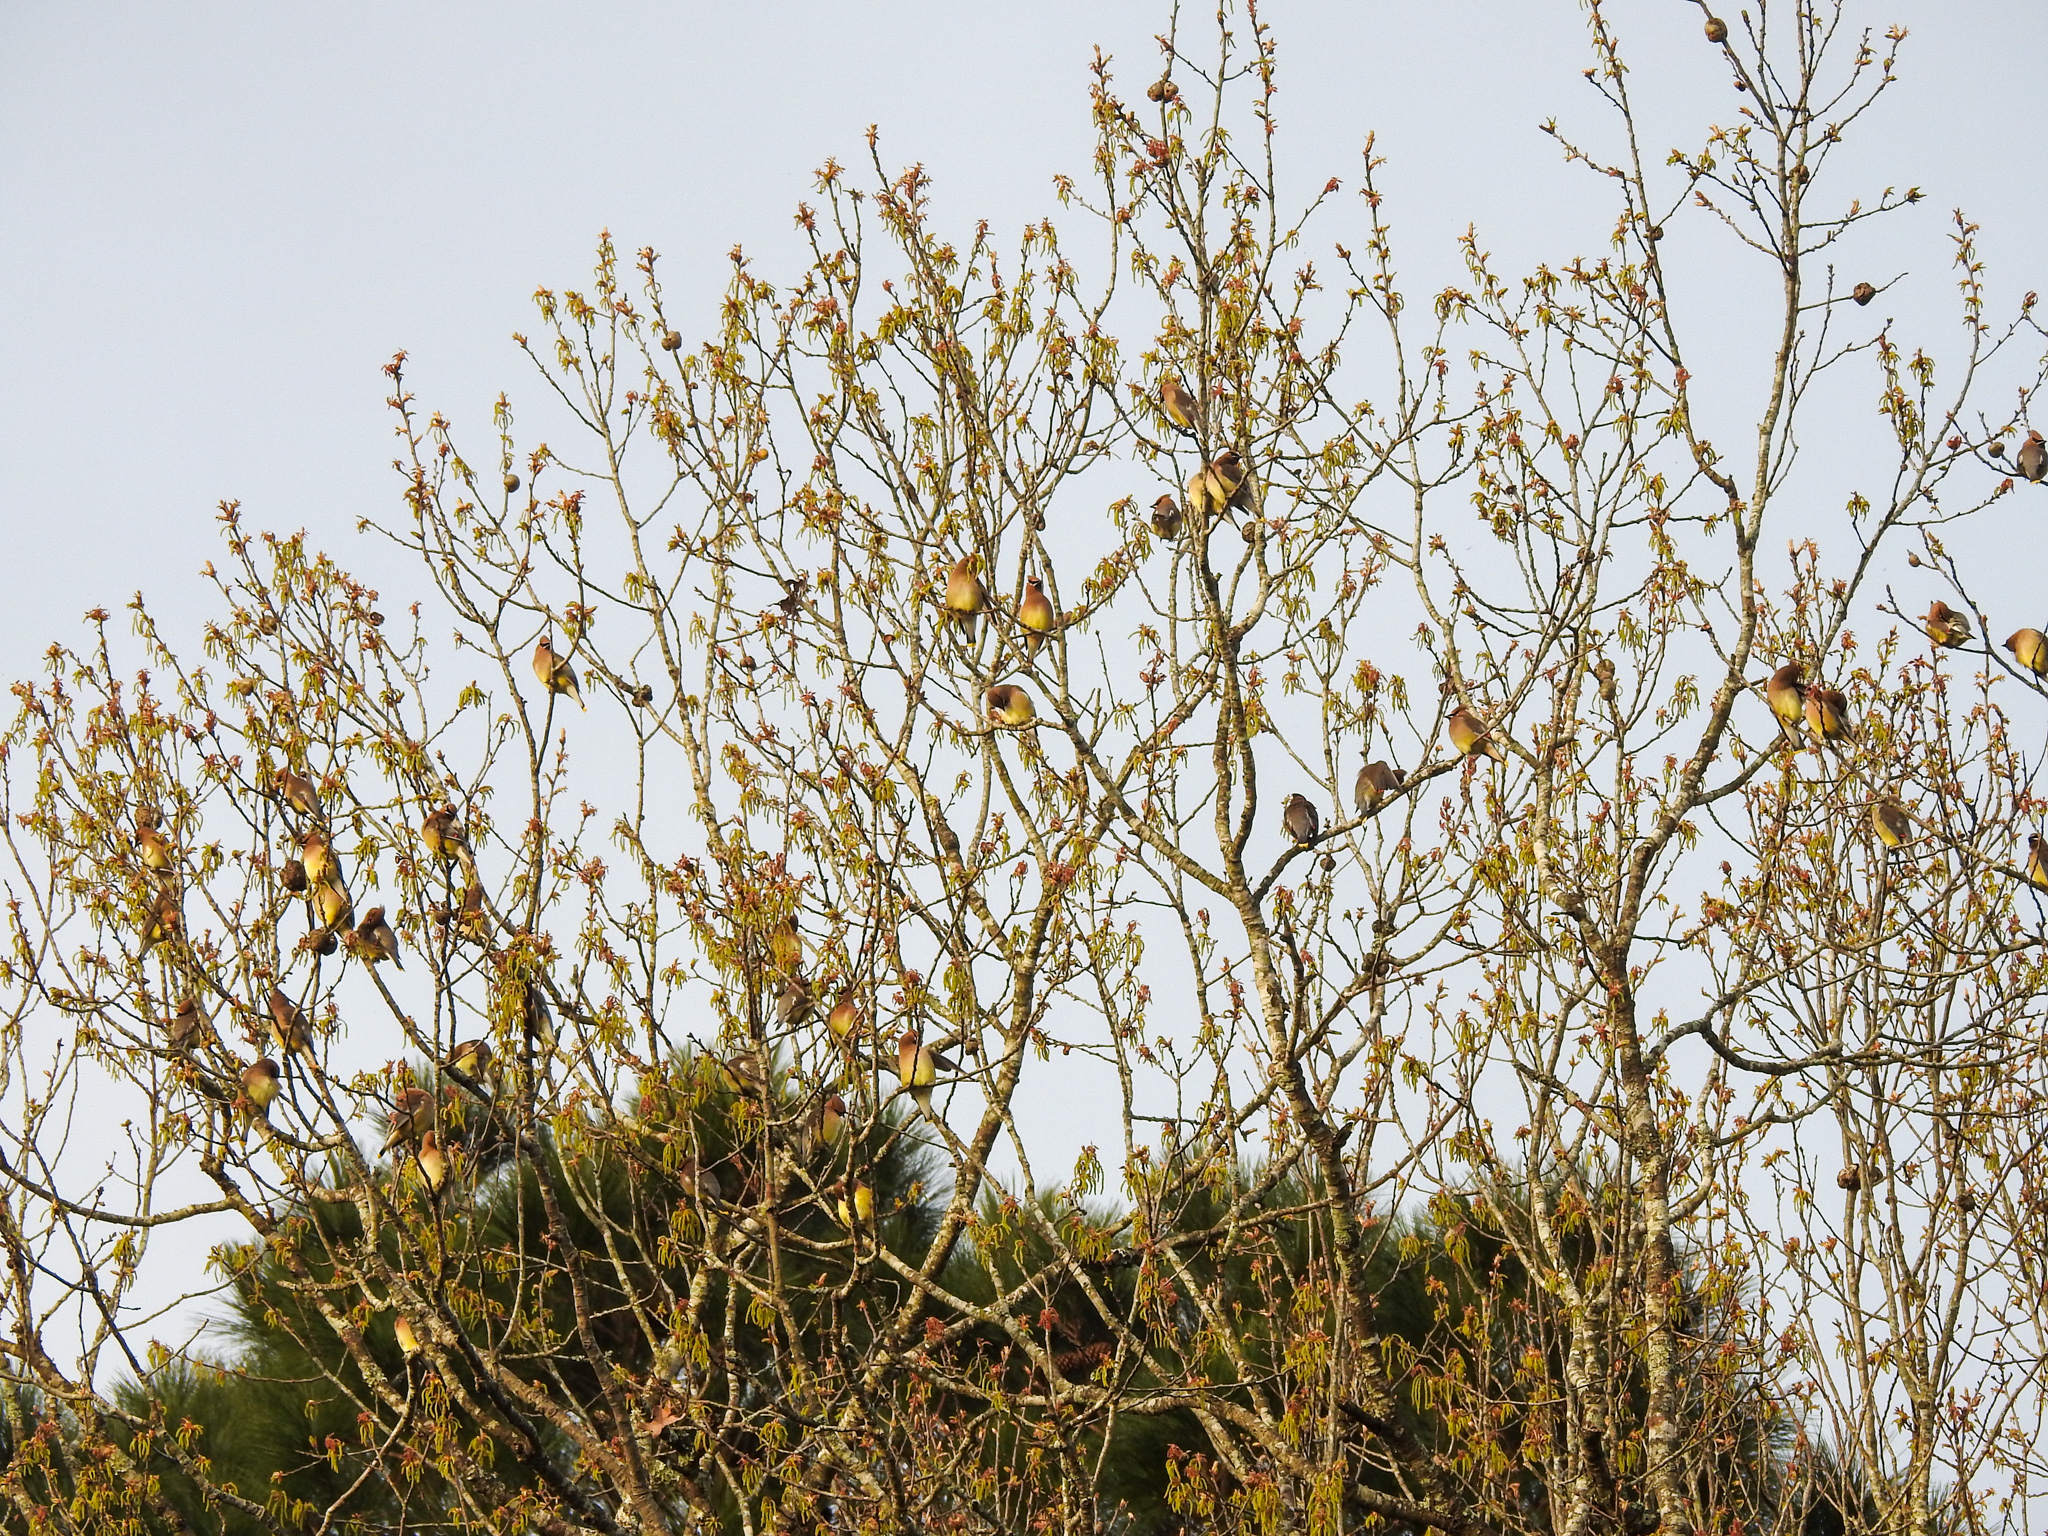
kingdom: Animalia
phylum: Chordata
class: Aves
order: Passeriformes
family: Bombycillidae
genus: Bombycilla
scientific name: Bombycilla cedrorum
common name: Cedar waxwing
